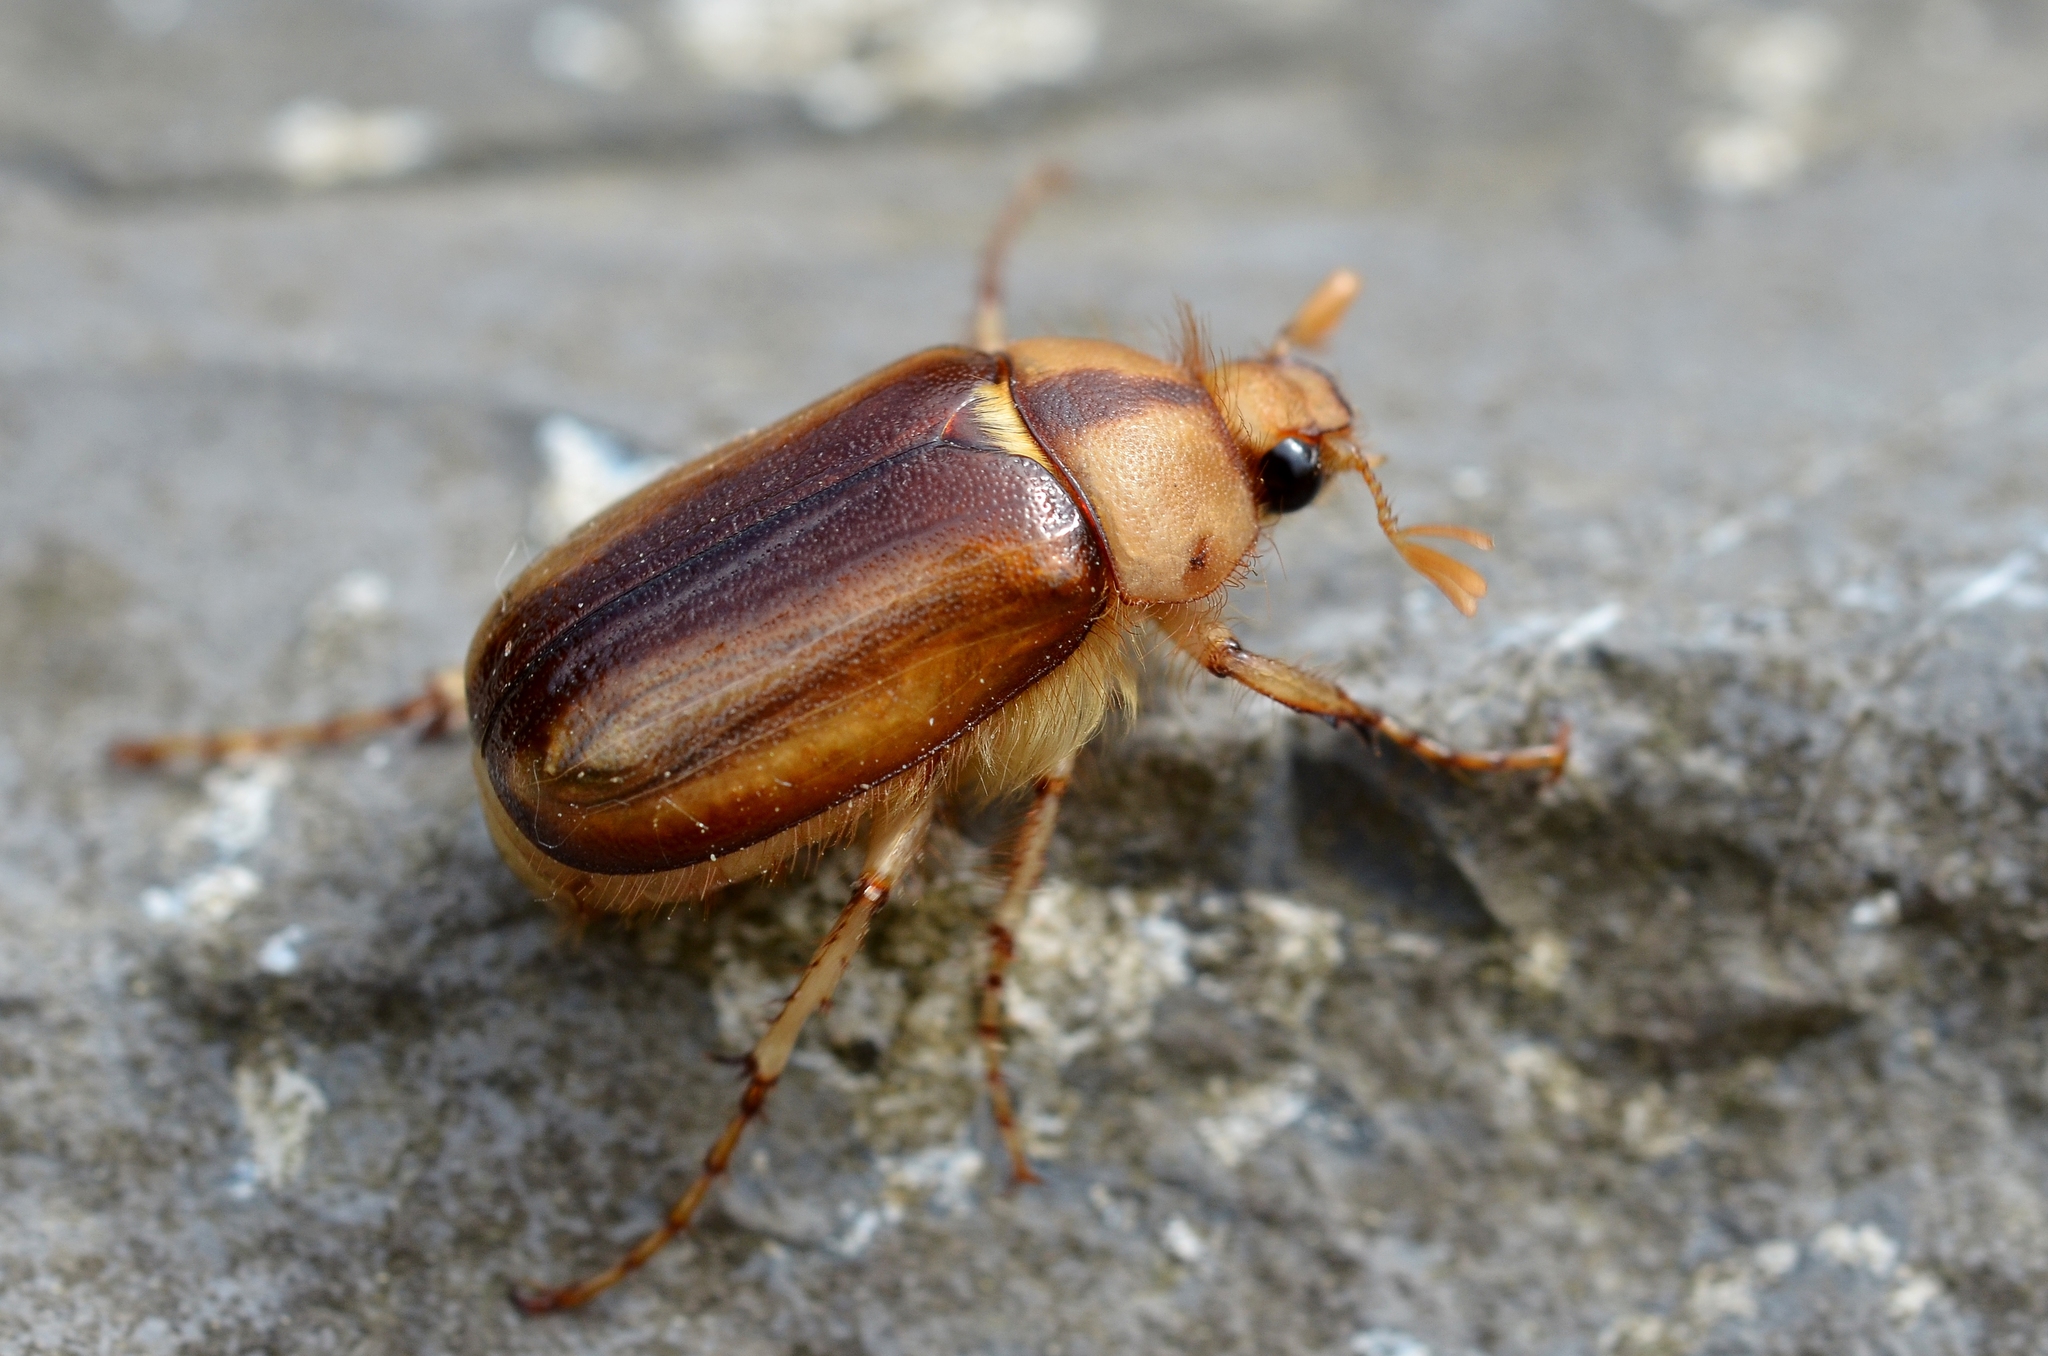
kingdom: Animalia
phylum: Arthropoda
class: Insecta
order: Coleoptera
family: Scarabaeidae
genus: Rhizotrogus
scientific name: Rhizotrogus aestivus
